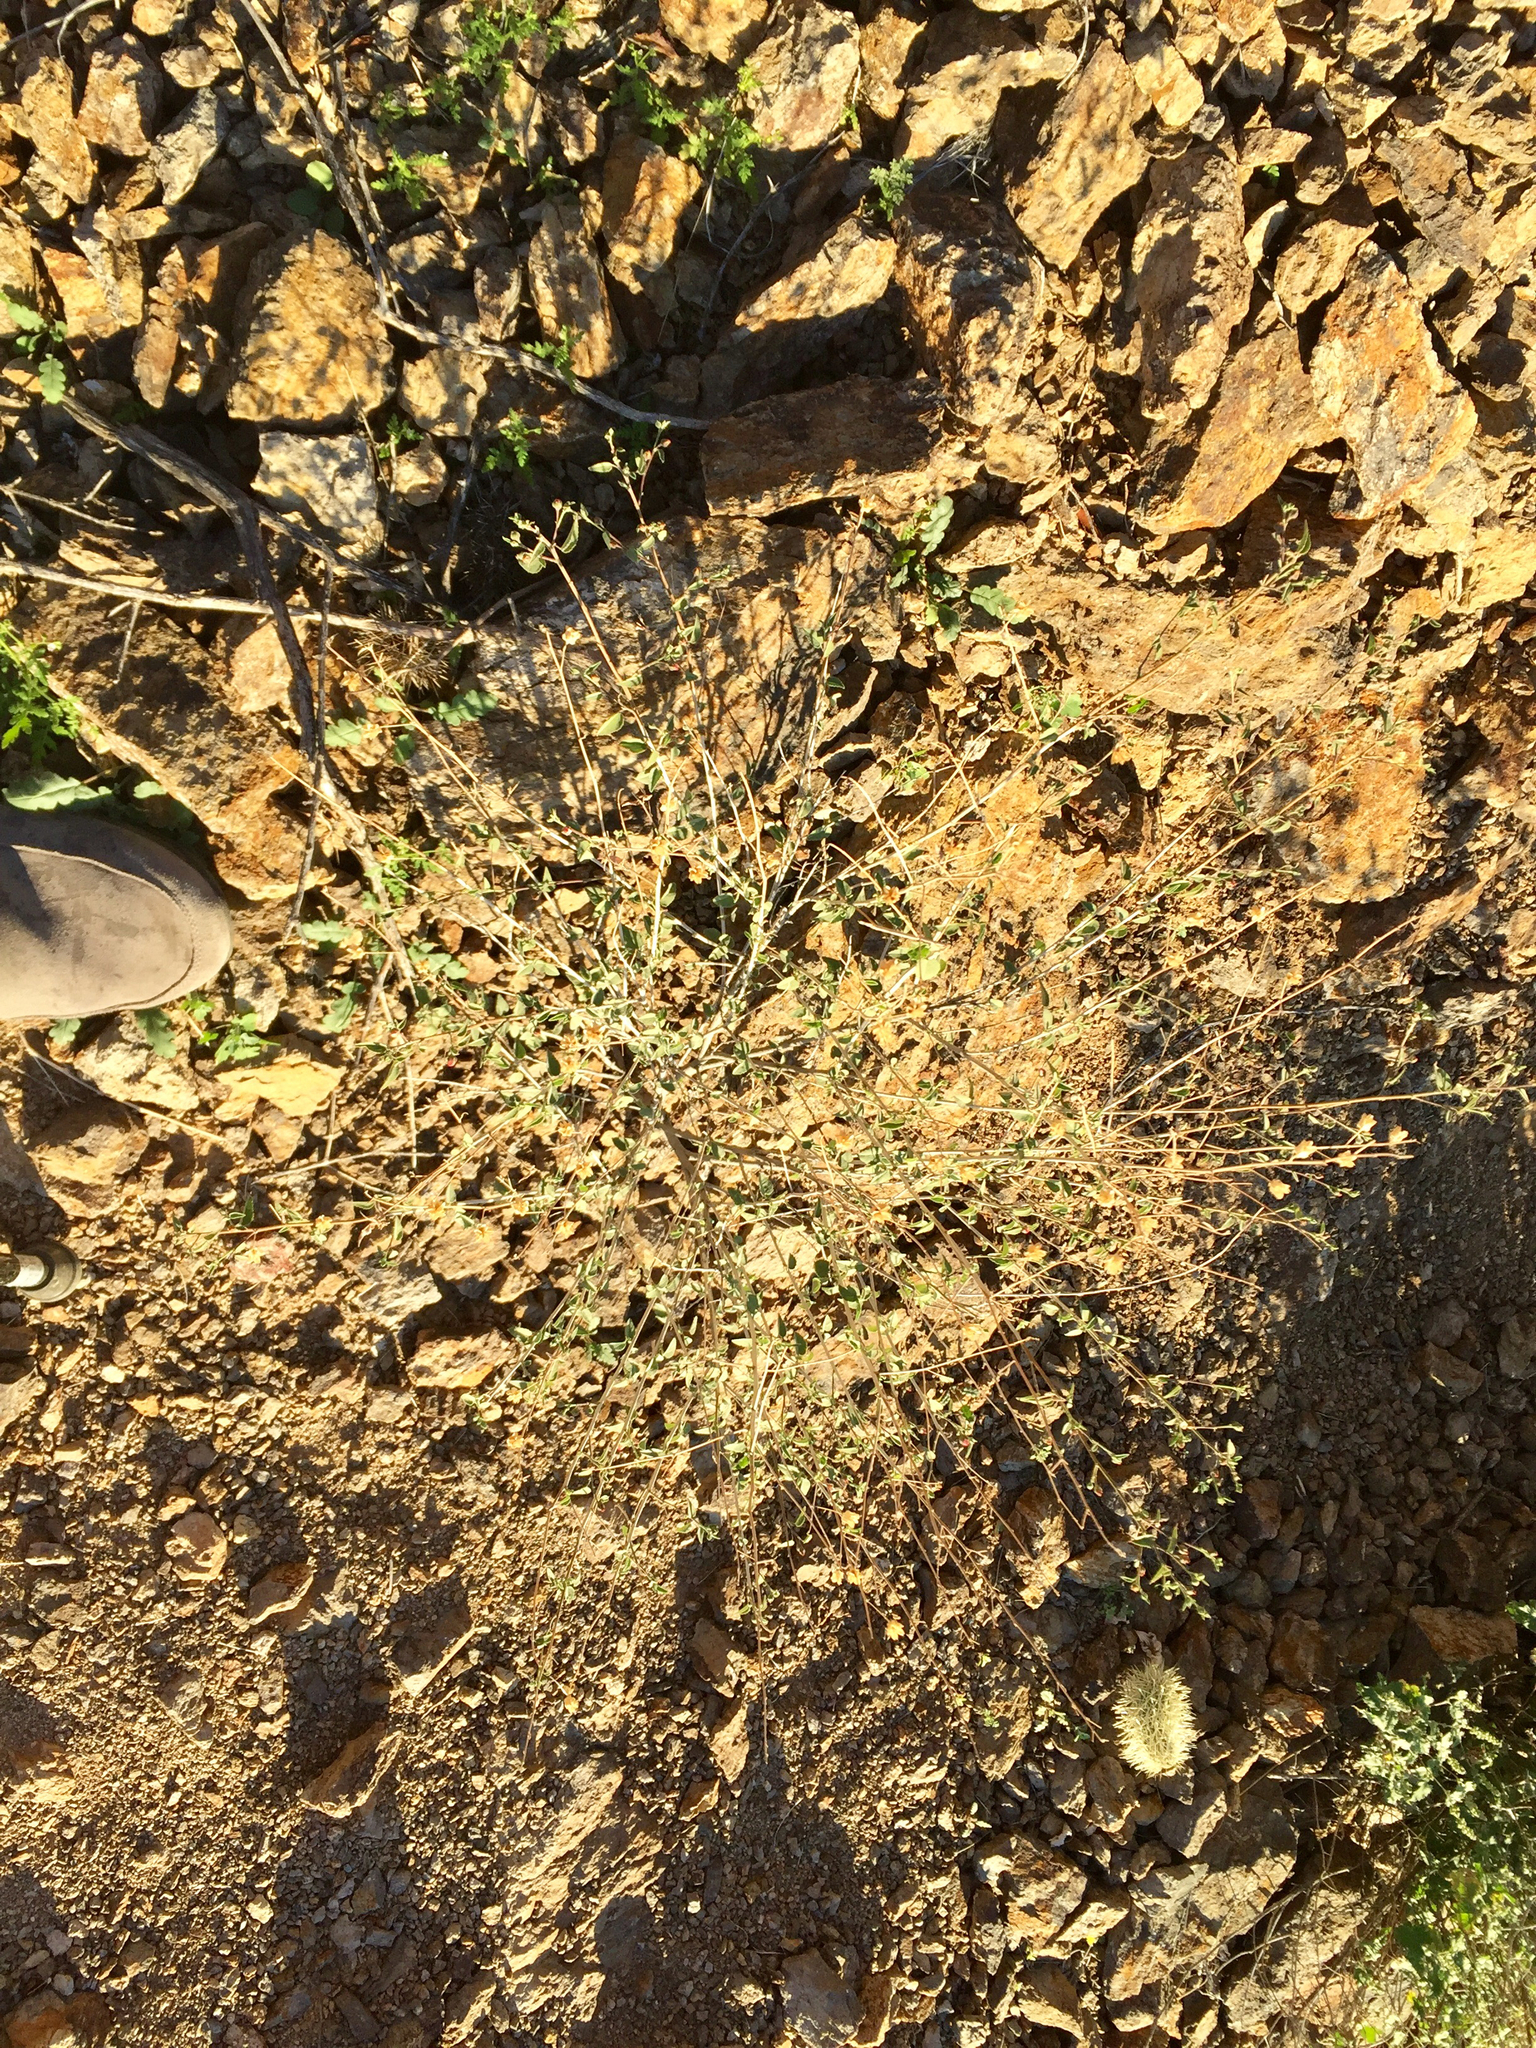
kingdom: Plantae
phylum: Tracheophyta
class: Magnoliopsida
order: Malvales
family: Malvaceae
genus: Abutilon
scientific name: Abutilon incanum
